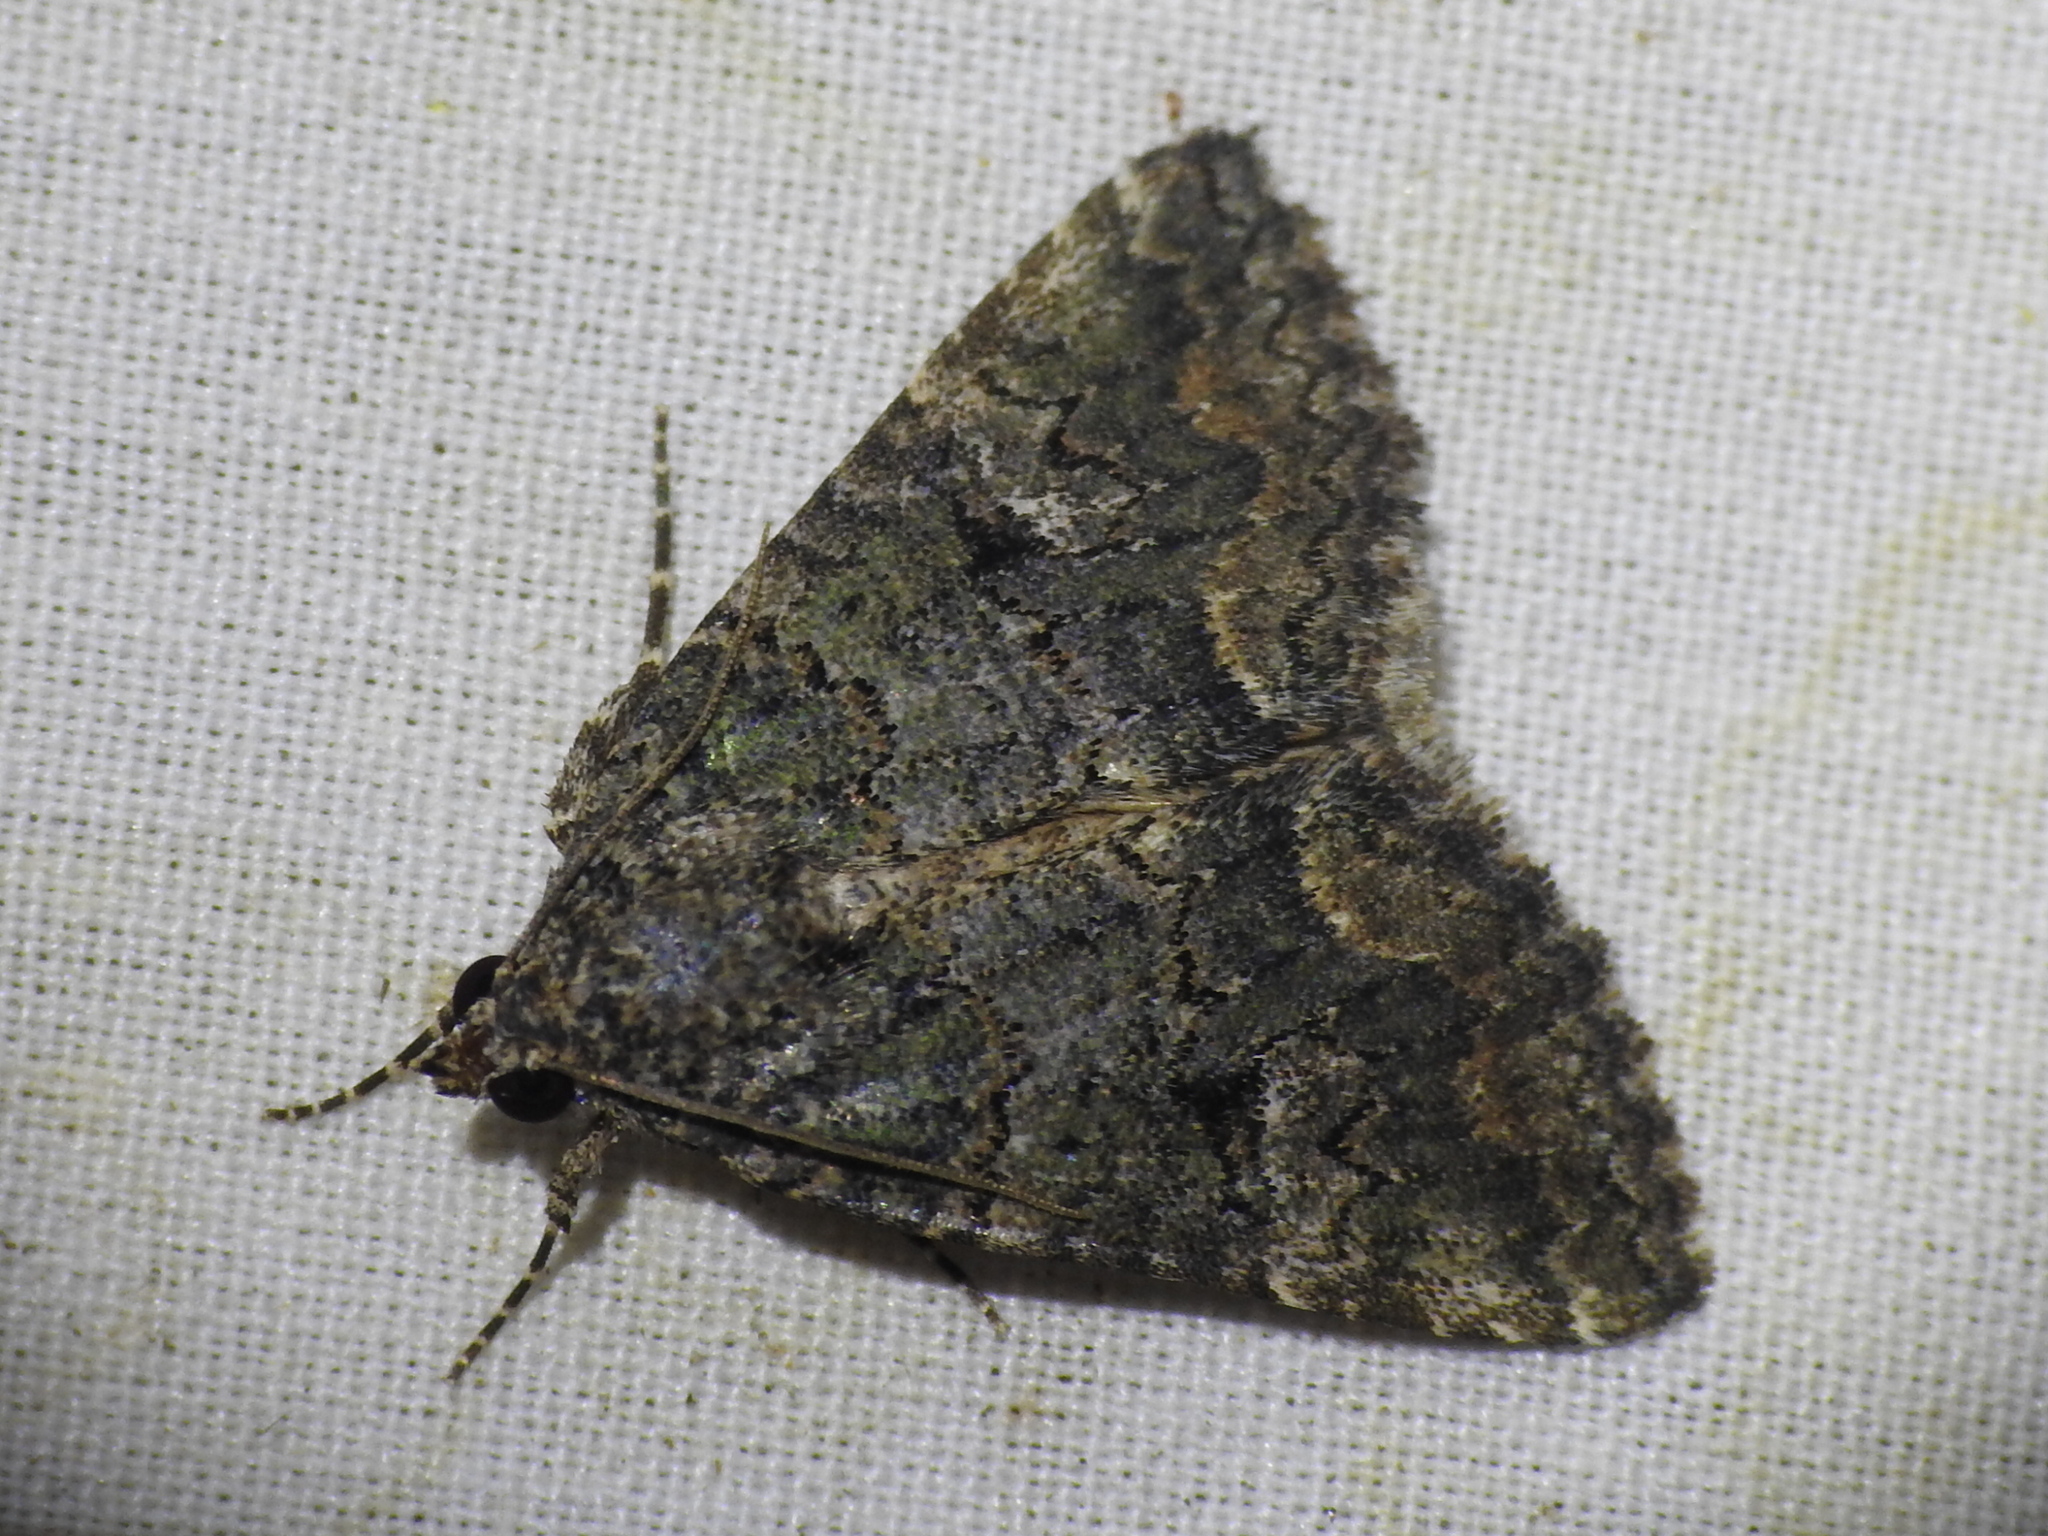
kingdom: Animalia
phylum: Arthropoda
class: Insecta
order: Lepidoptera
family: Erebidae
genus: Eubolina
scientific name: Eubolina impartialis
